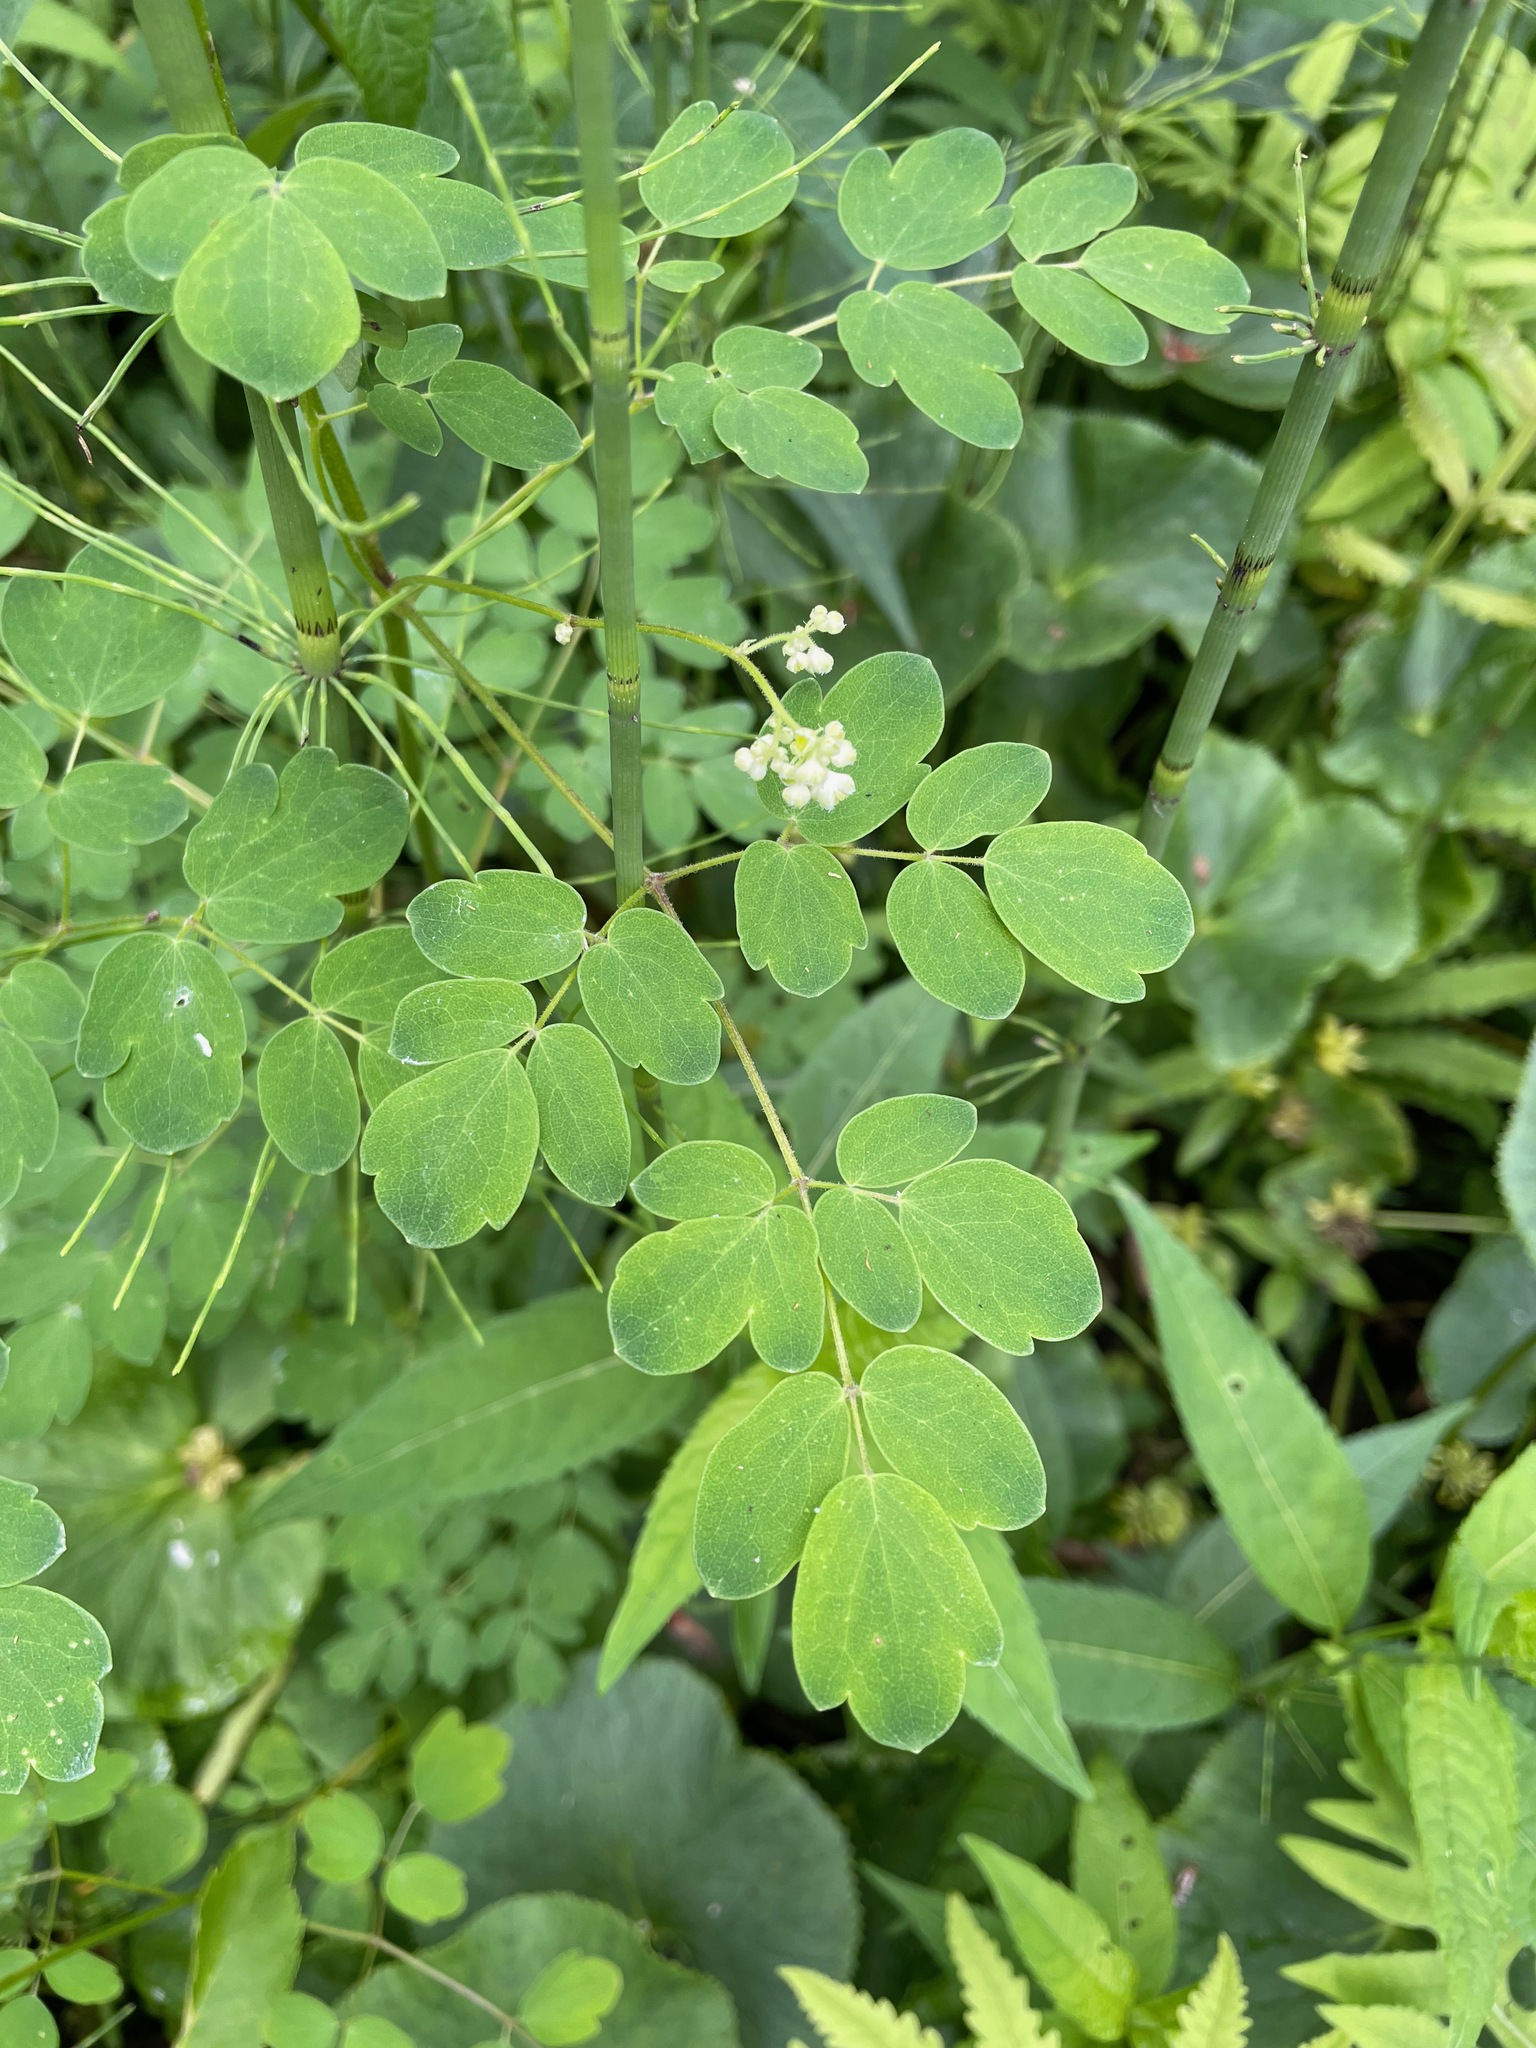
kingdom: Plantae
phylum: Tracheophyta
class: Magnoliopsida
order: Ranunculales
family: Ranunculaceae
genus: Thalictrum
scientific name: Thalictrum pubescens
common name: King-of-the-meadow
